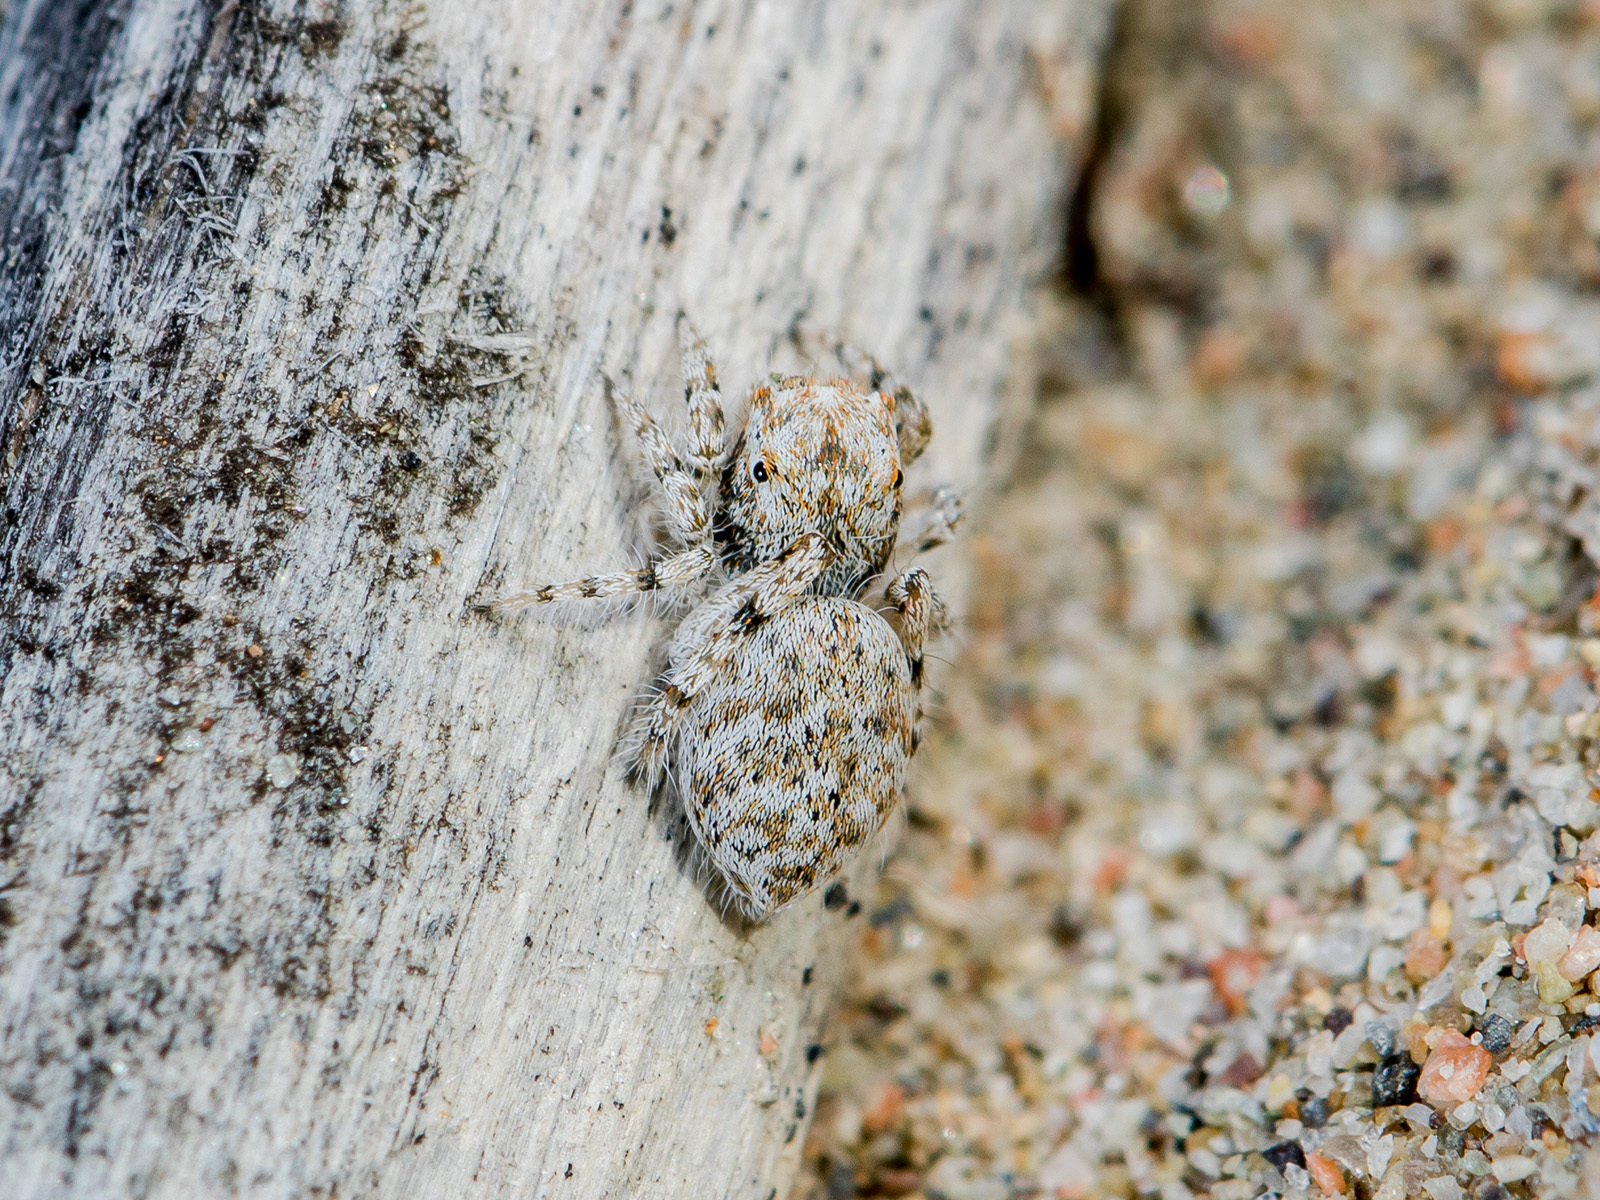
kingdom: Animalia
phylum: Arthropoda
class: Arachnida
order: Araneae
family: Salticidae
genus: Yllenus
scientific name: Yllenus uiguricus
